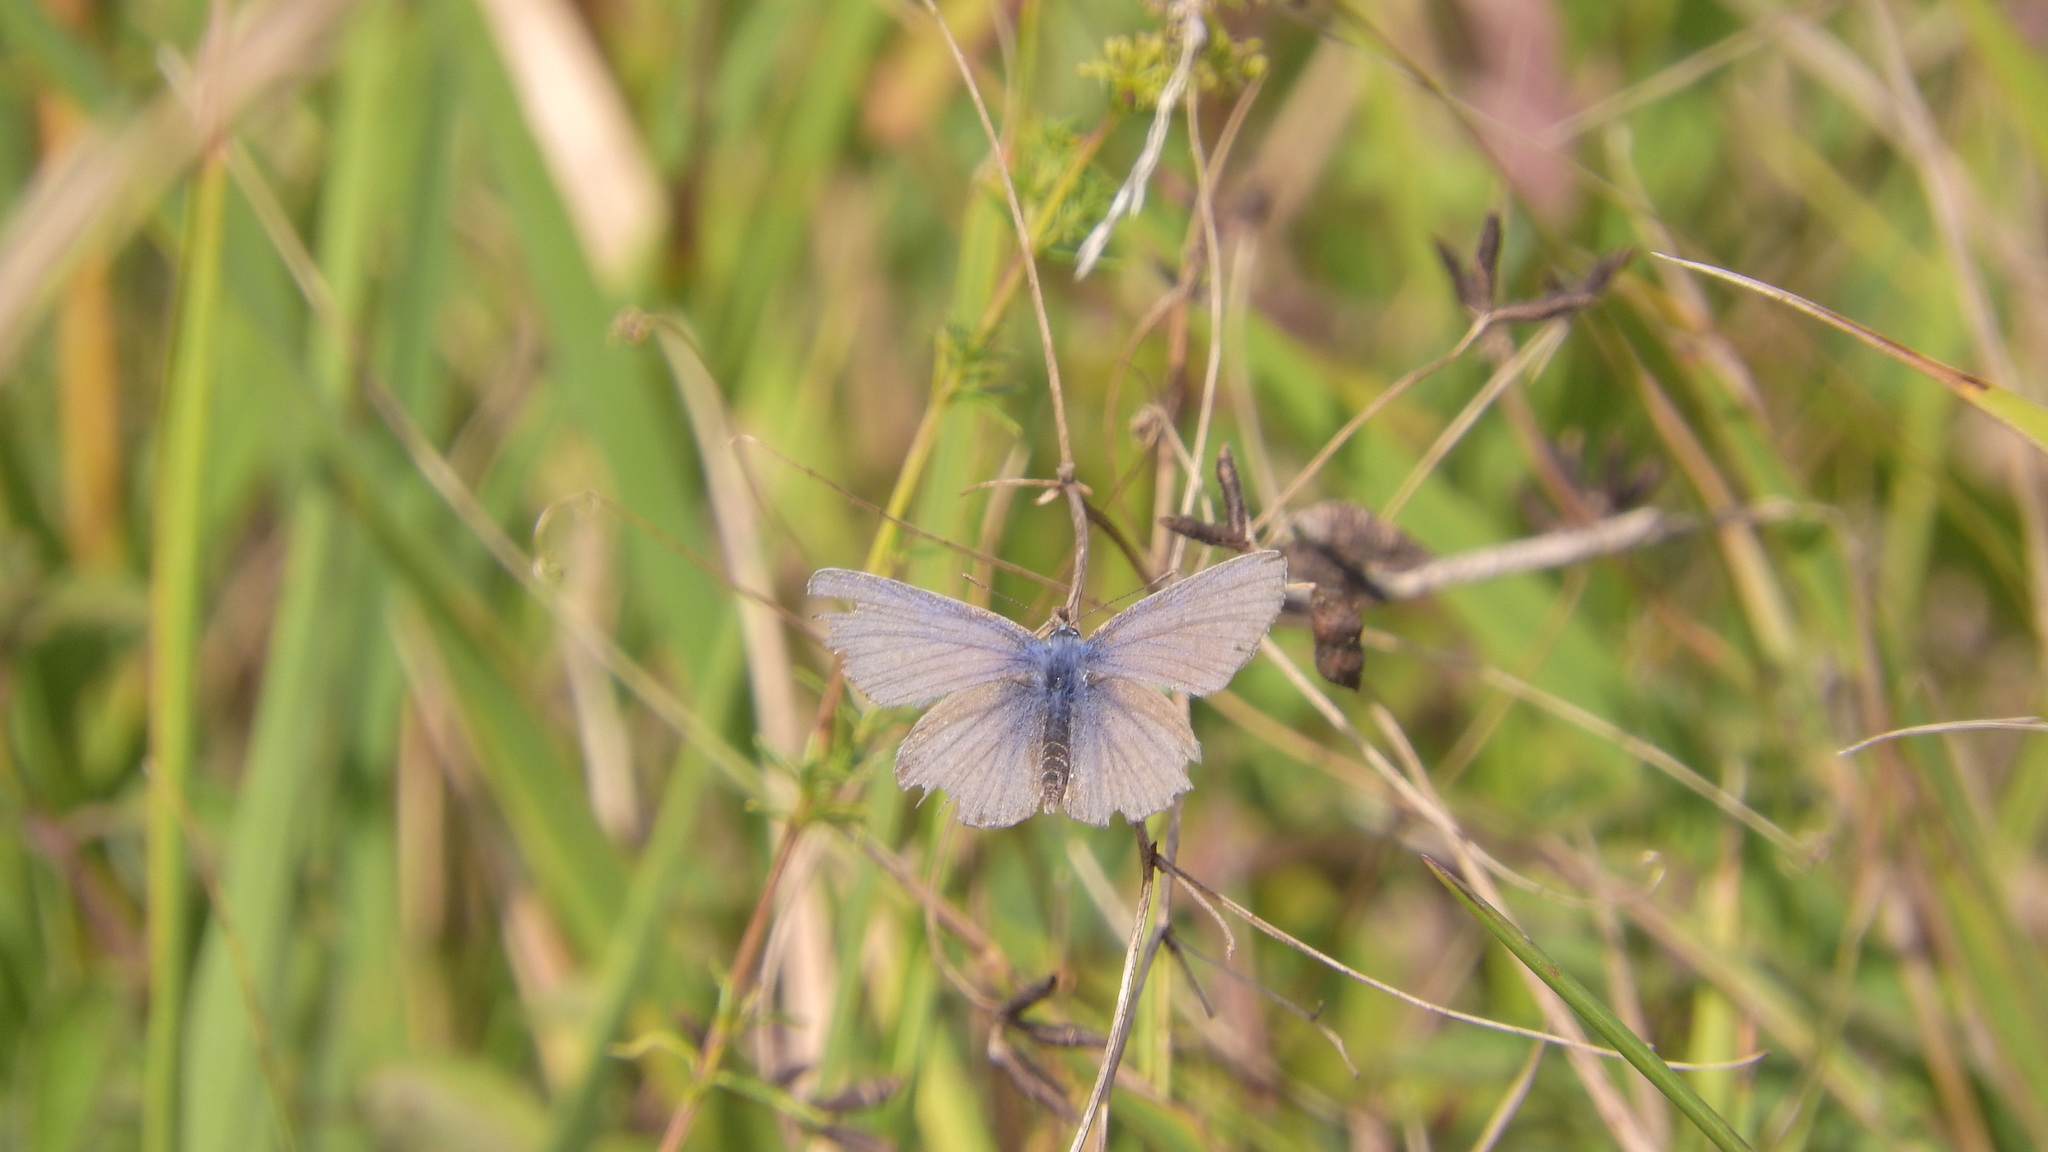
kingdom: Animalia
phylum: Arthropoda
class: Insecta
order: Lepidoptera
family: Lycaenidae
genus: Polyommatus
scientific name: Polyommatus icarus
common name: Common blue
